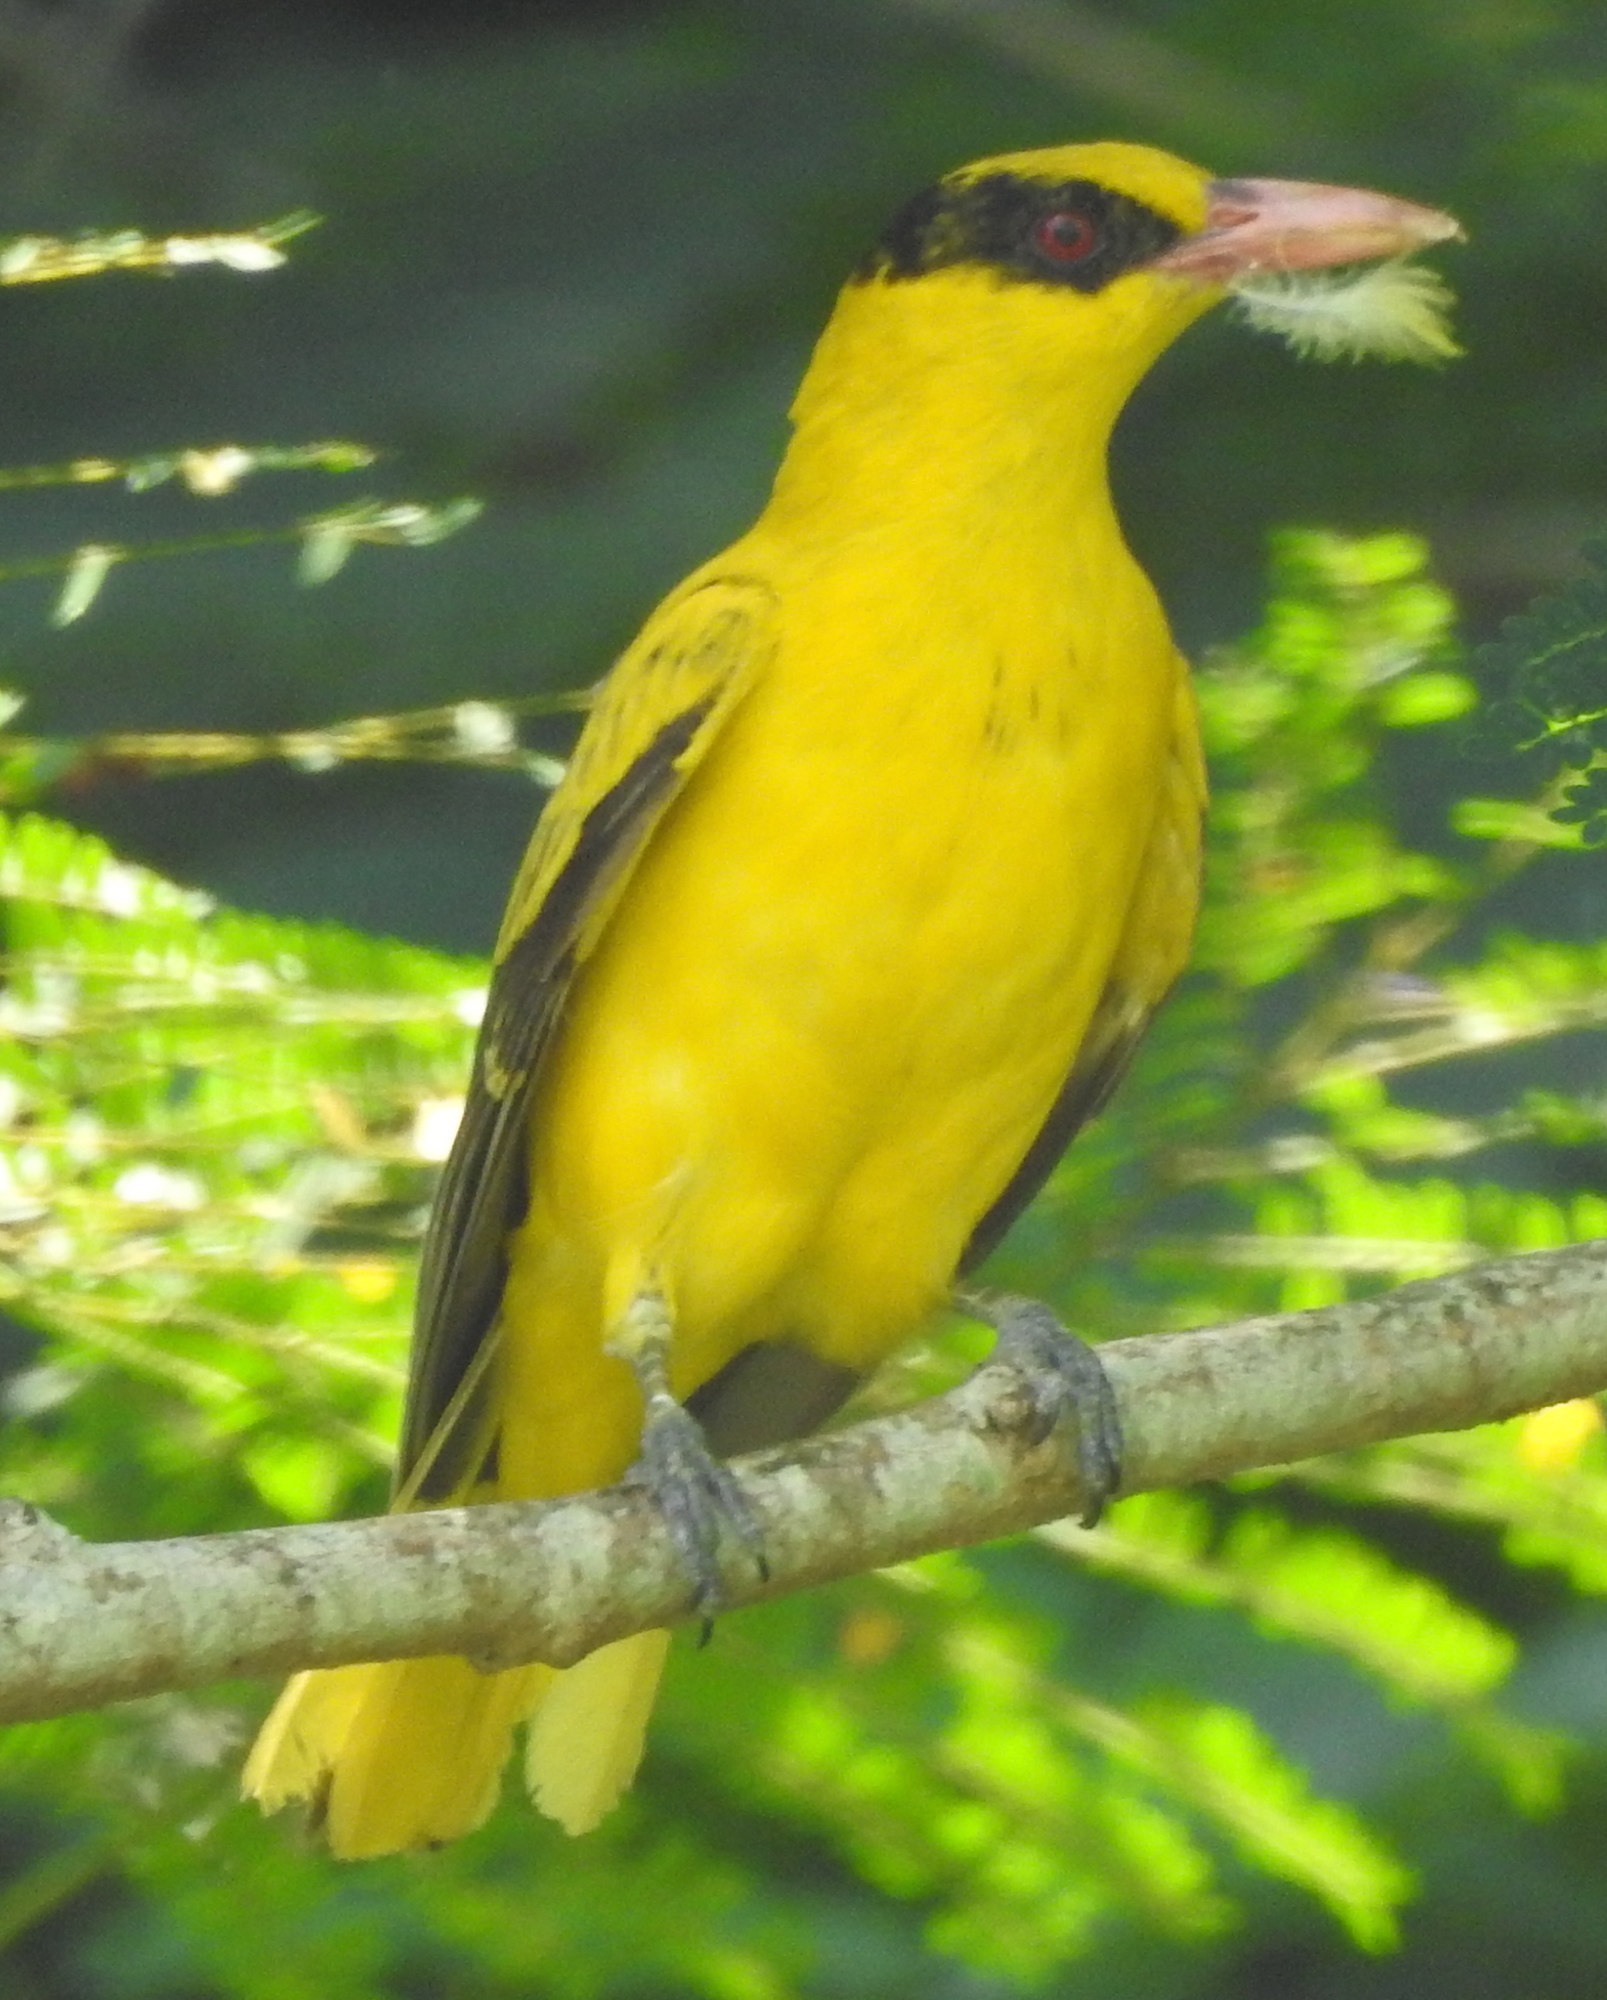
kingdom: Animalia
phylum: Chordata
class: Aves
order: Passeriformes
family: Oriolidae
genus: Oriolus
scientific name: Oriolus chinensis
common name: Black-naped oriole
